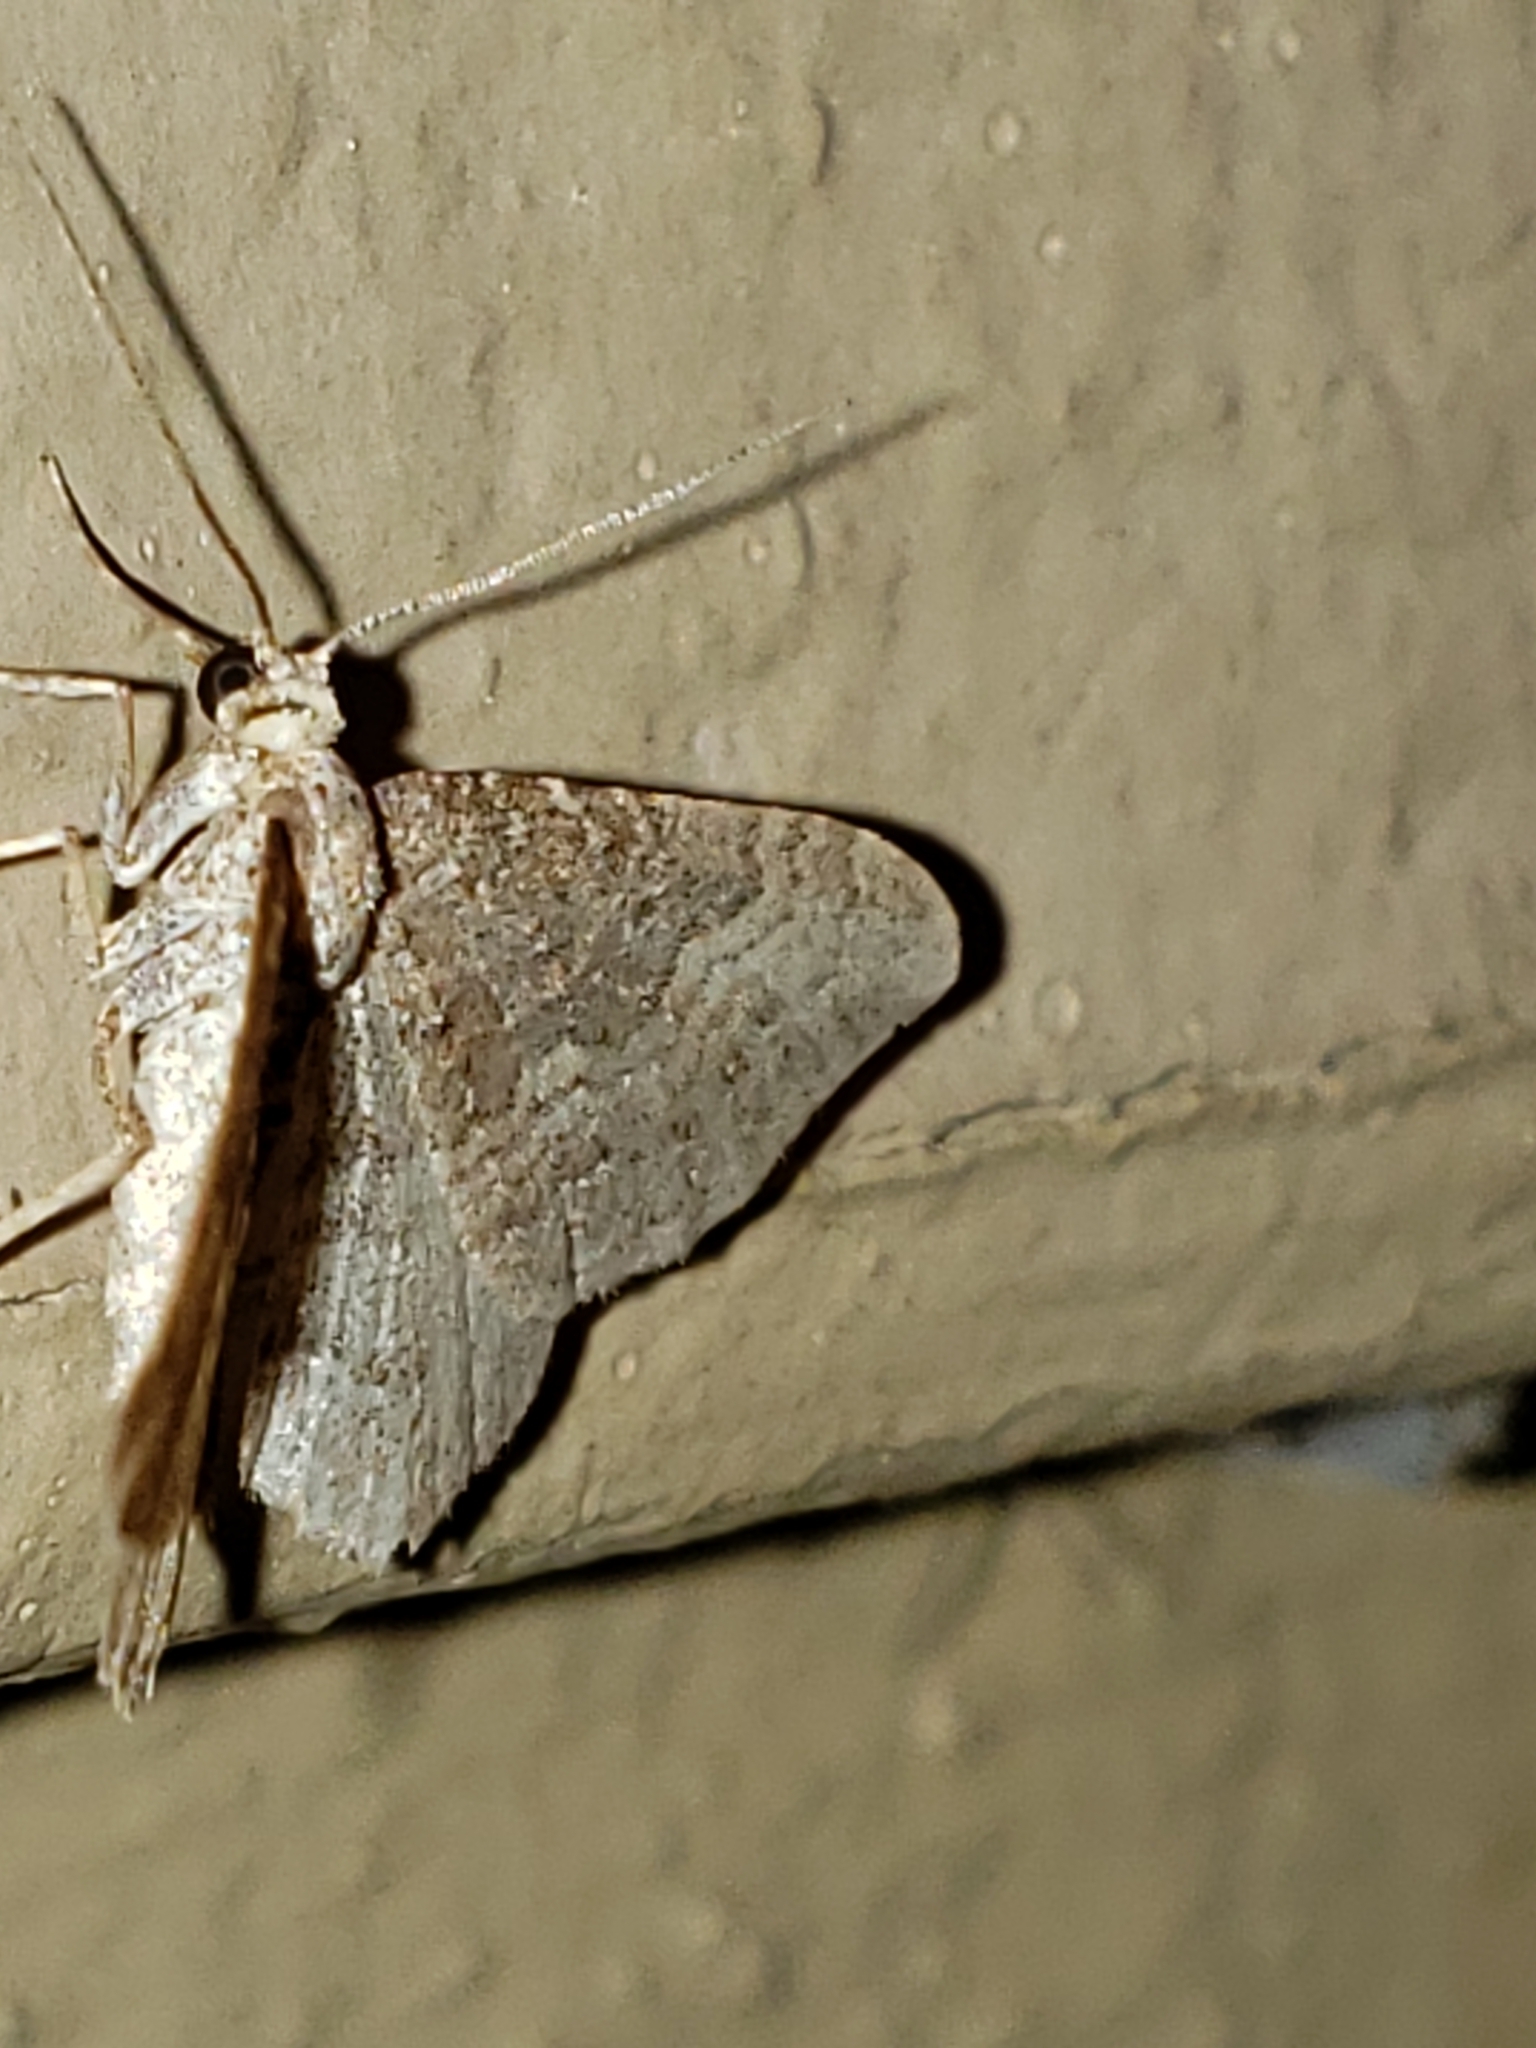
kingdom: Animalia
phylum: Arthropoda
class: Insecta
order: Lepidoptera
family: Geometridae
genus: Orthonama
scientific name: Orthonama obstipata
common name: The gem
